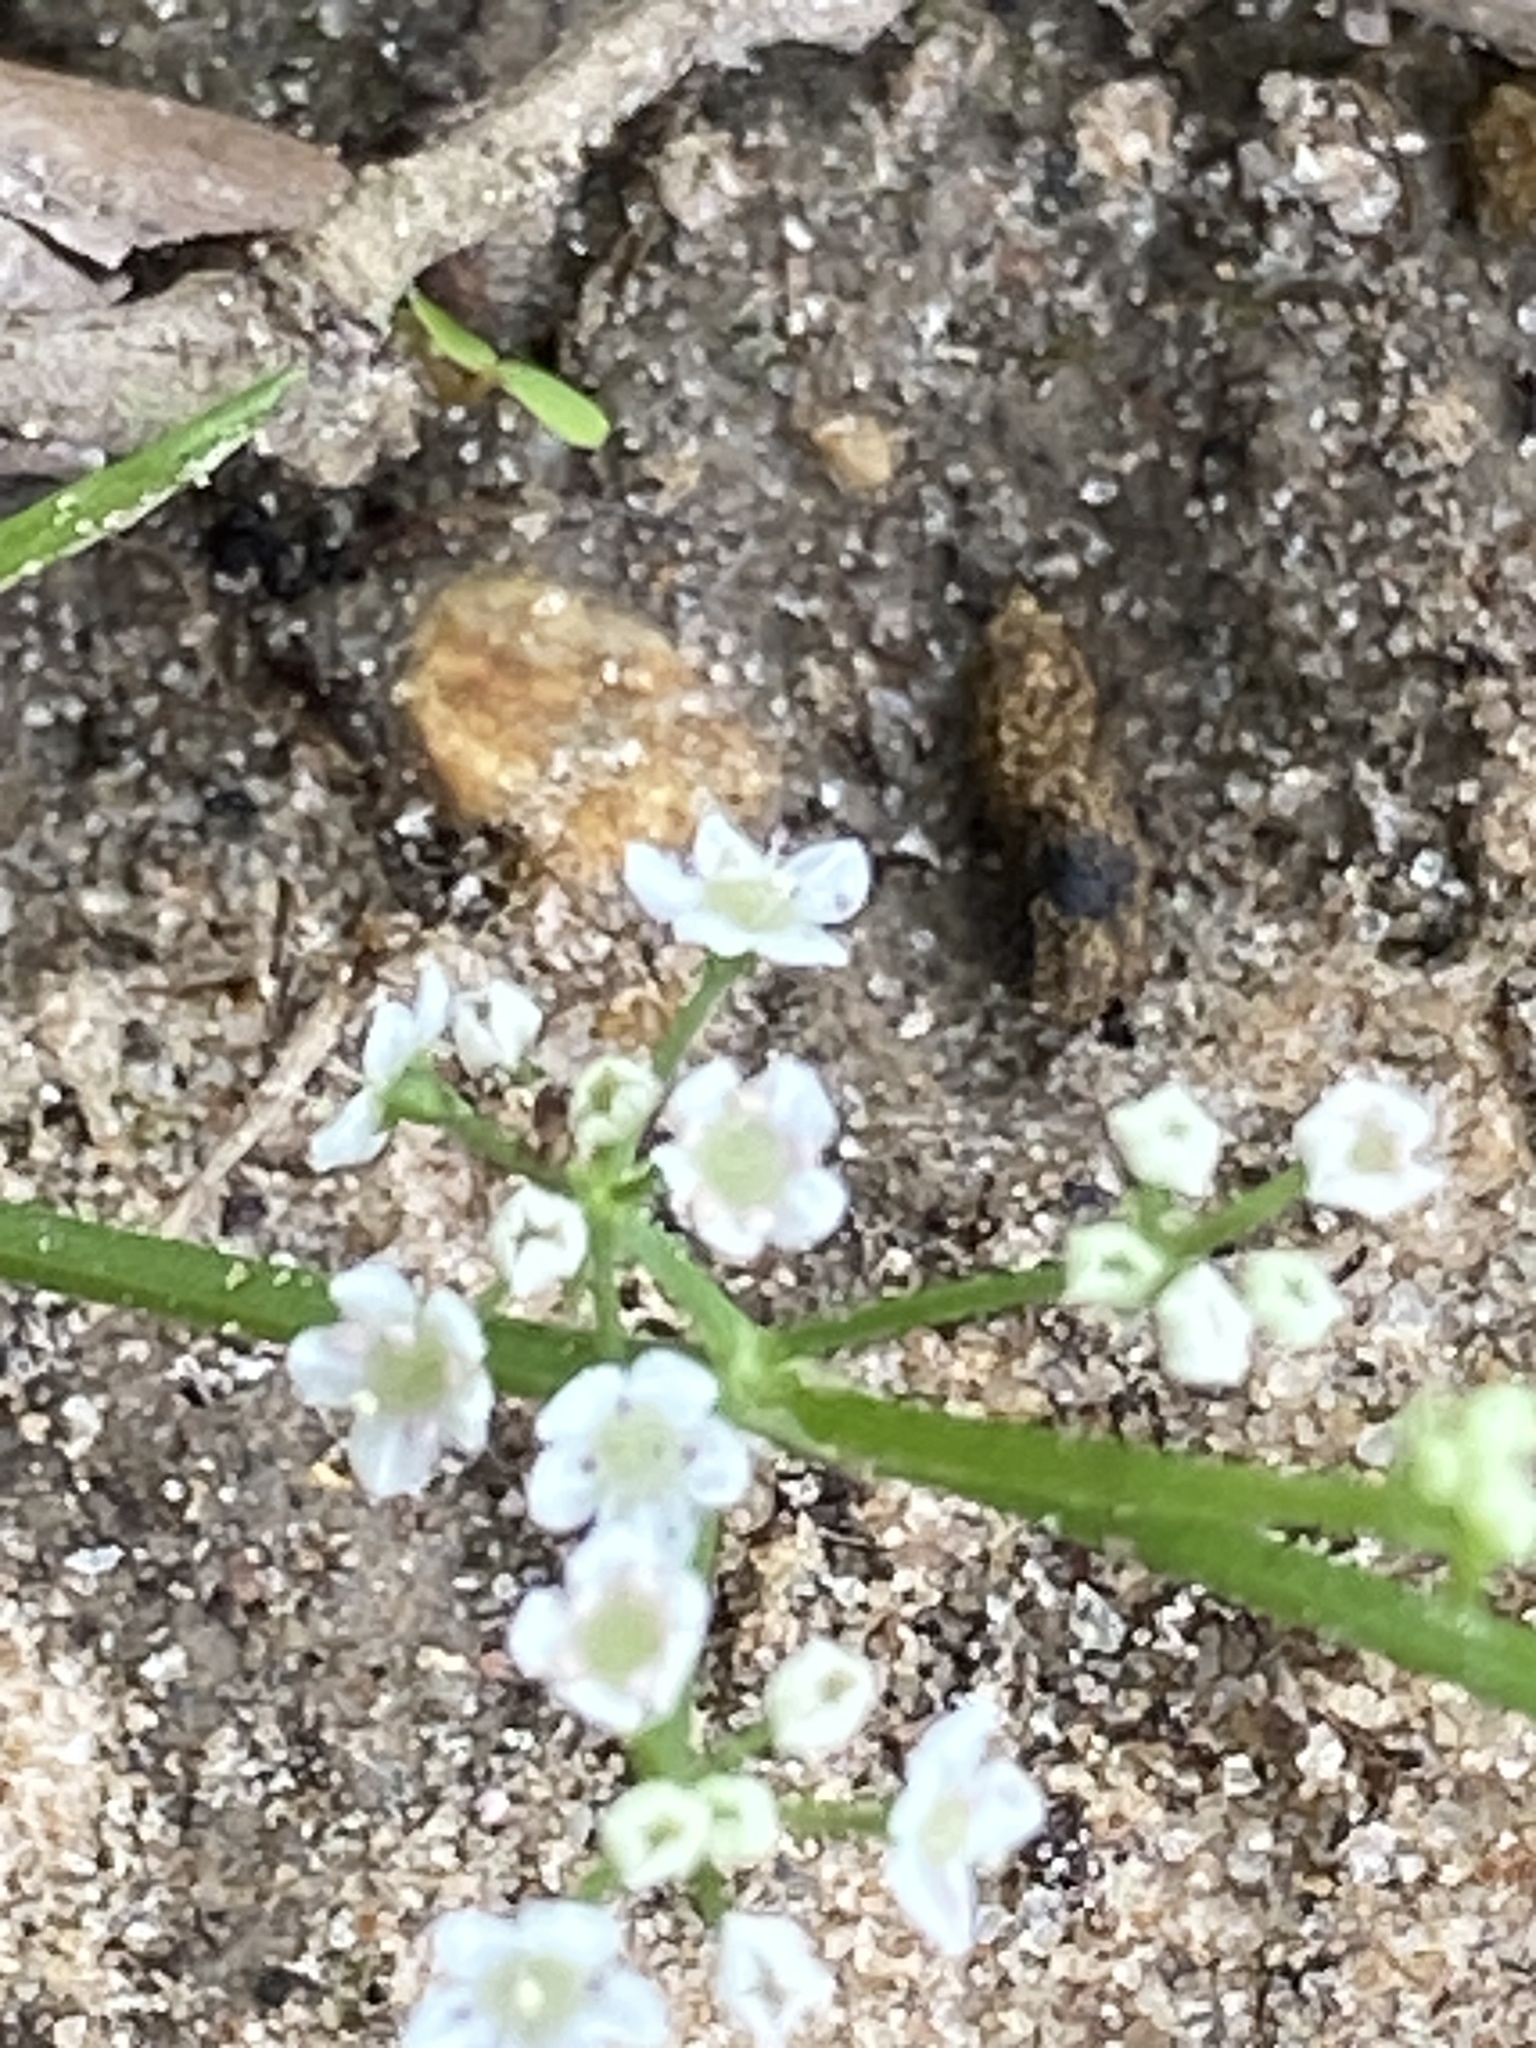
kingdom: Plantae
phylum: Tracheophyta
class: Magnoliopsida
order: Apiales
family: Apiaceae
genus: Limnosciadium
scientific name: Limnosciadium pinnatum
